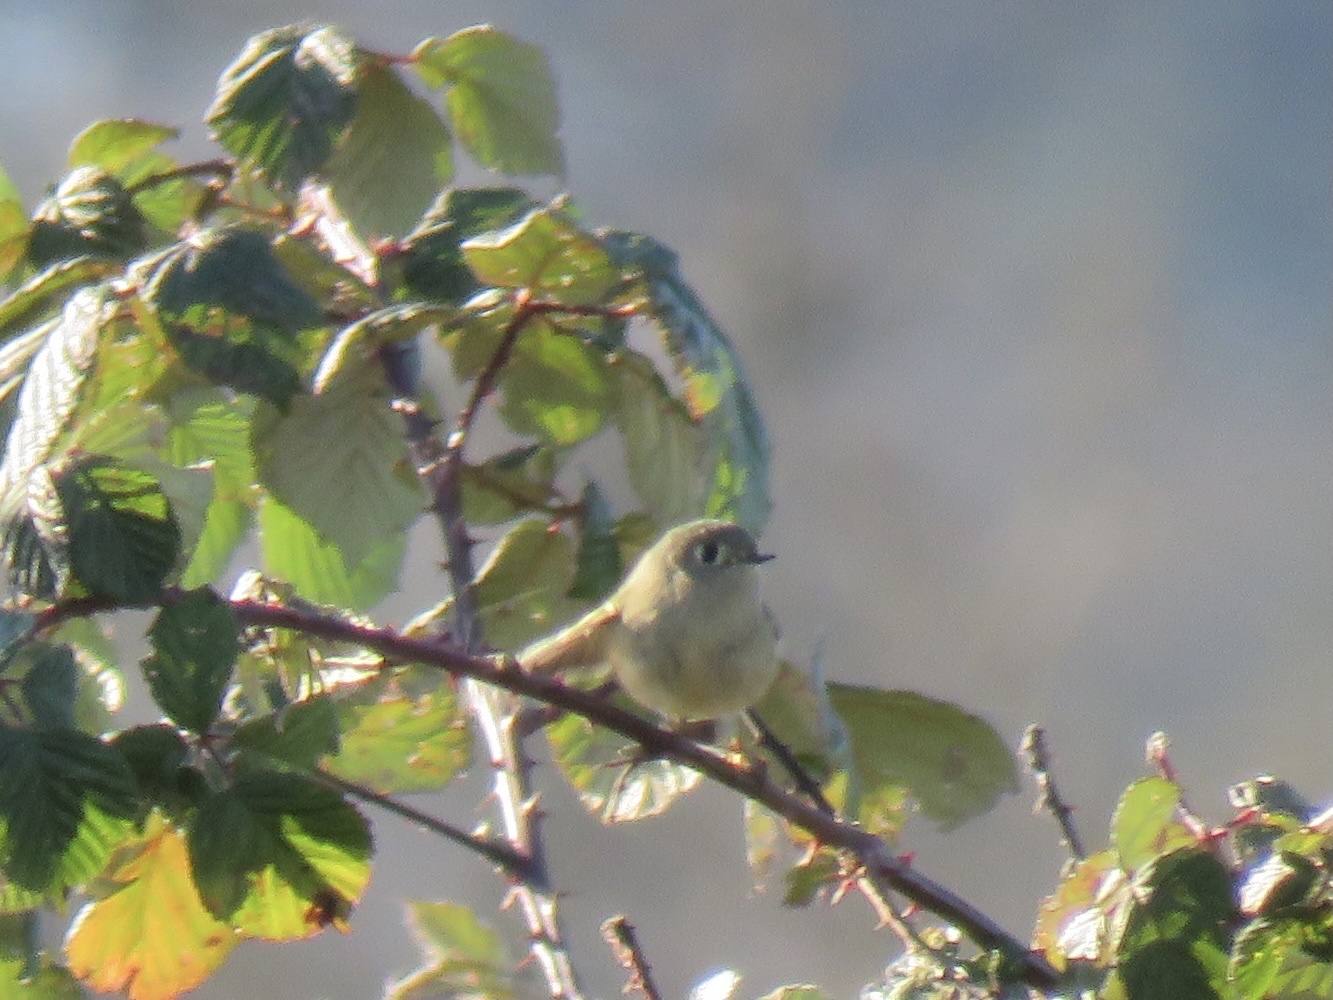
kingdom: Animalia
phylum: Chordata
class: Aves
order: Passeriformes
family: Regulidae
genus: Regulus
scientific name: Regulus calendula
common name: Ruby-crowned kinglet
